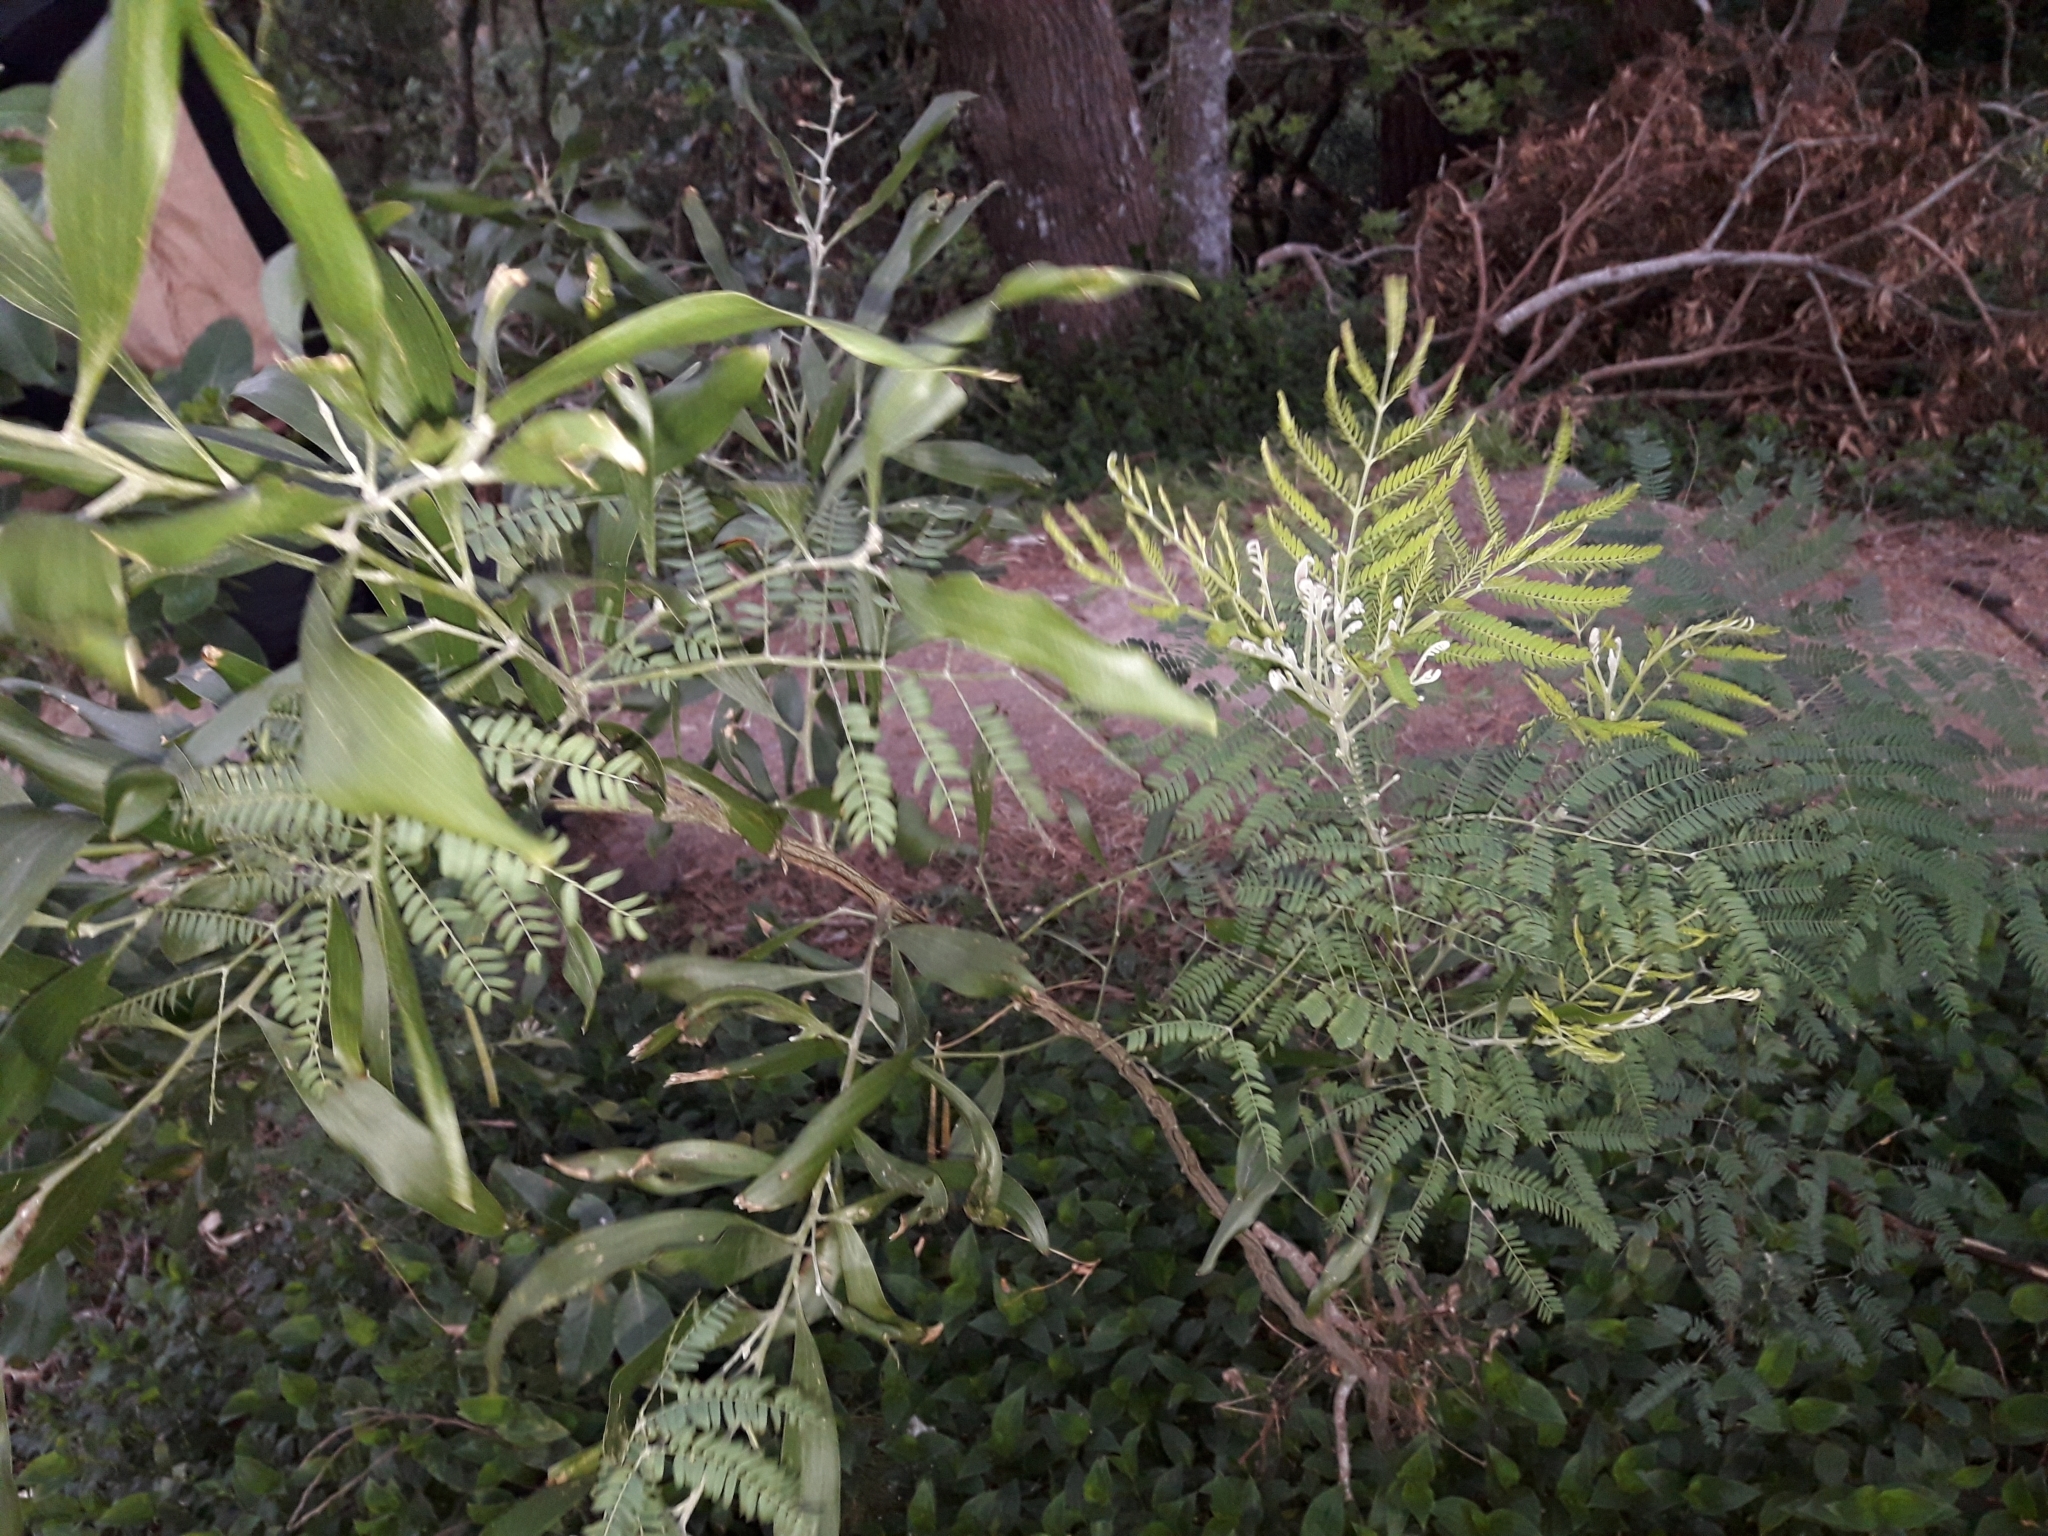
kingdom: Plantae
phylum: Tracheophyta
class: Magnoliopsida
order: Fabales
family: Fabaceae
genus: Acacia
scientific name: Acacia melanoxylon
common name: Blackwood
